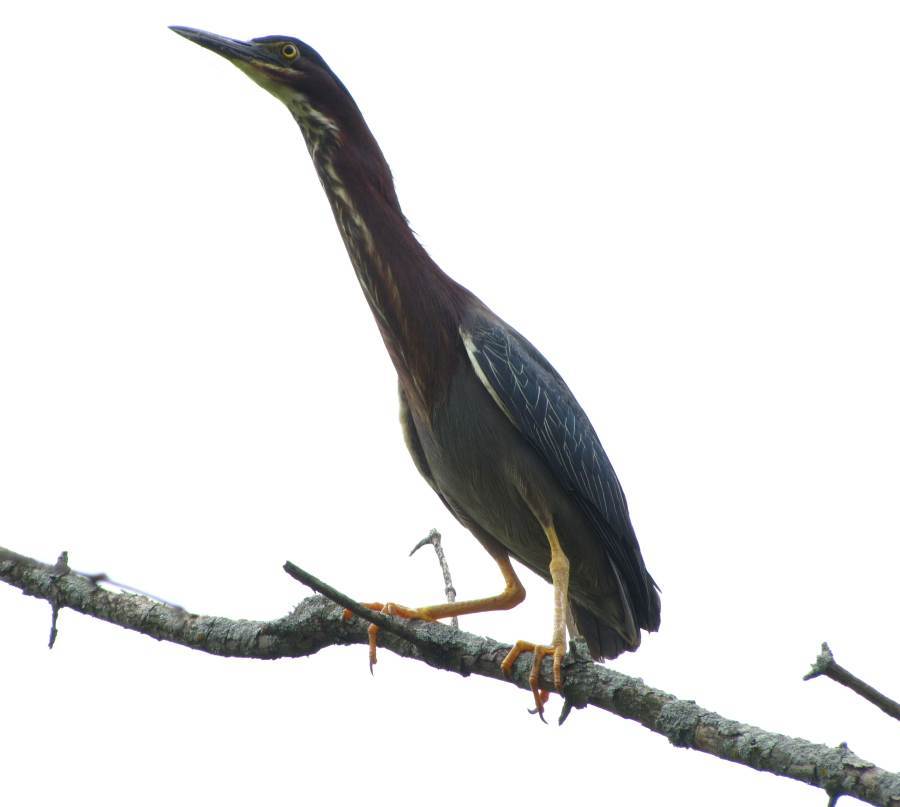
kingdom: Animalia
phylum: Chordata
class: Aves
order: Pelecaniformes
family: Ardeidae
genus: Butorides
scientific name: Butorides virescens
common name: Green heron
